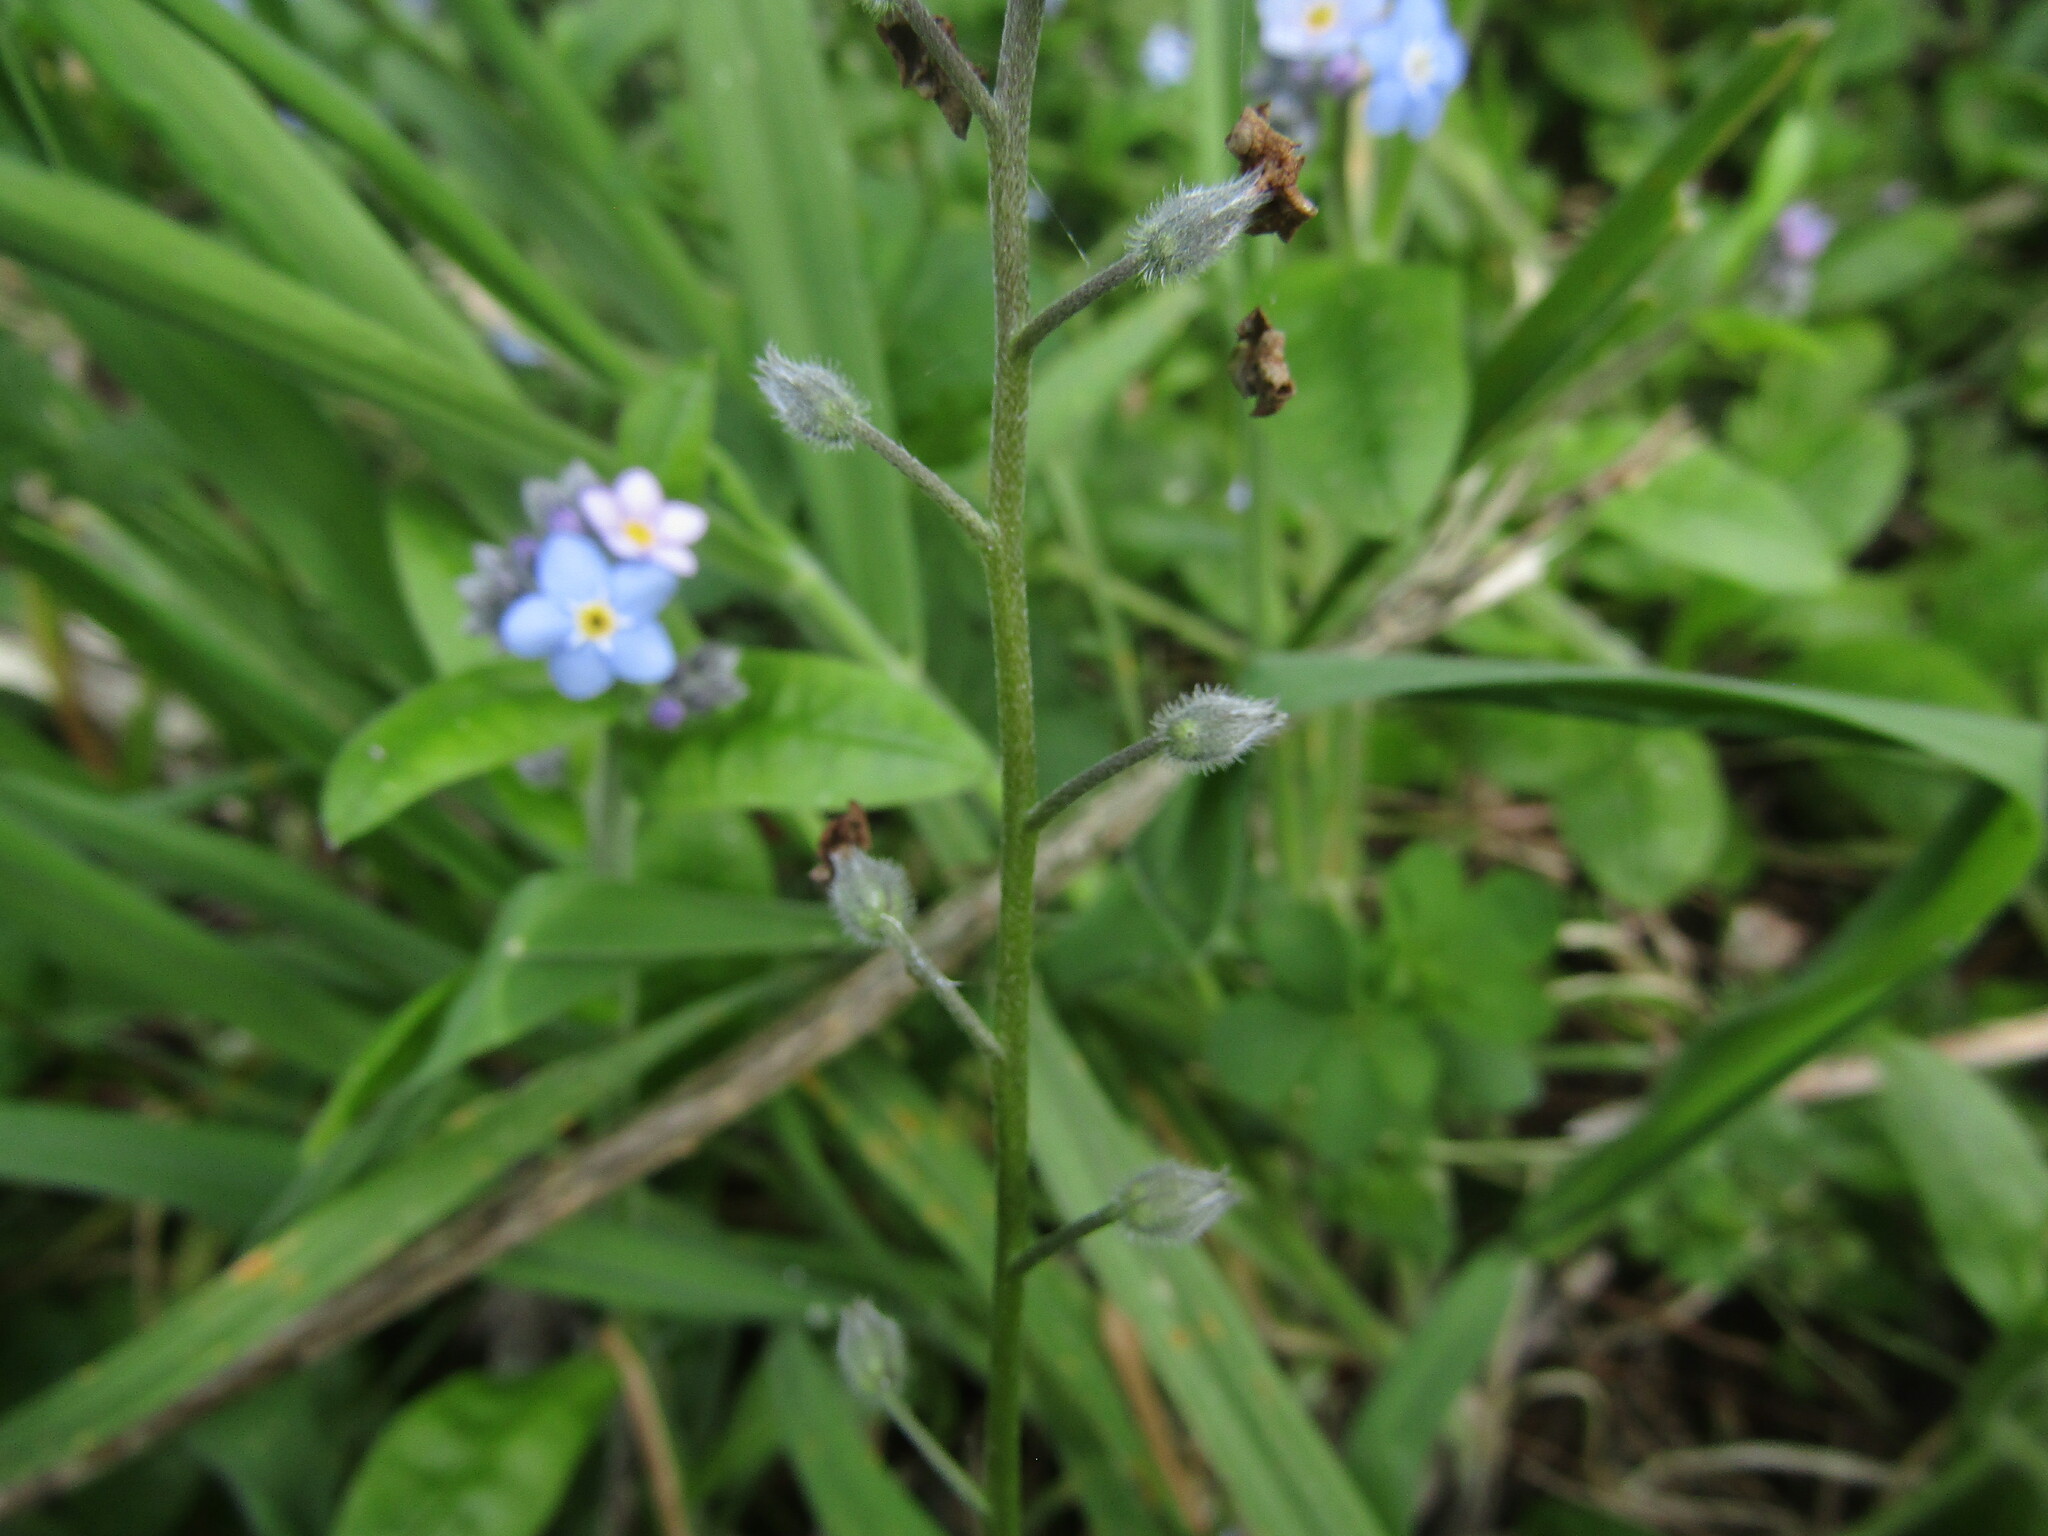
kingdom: Plantae
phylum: Tracheophyta
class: Magnoliopsida
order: Boraginales
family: Boraginaceae
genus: Myosotis
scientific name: Myosotis sylvatica
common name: Wood forget-me-not
